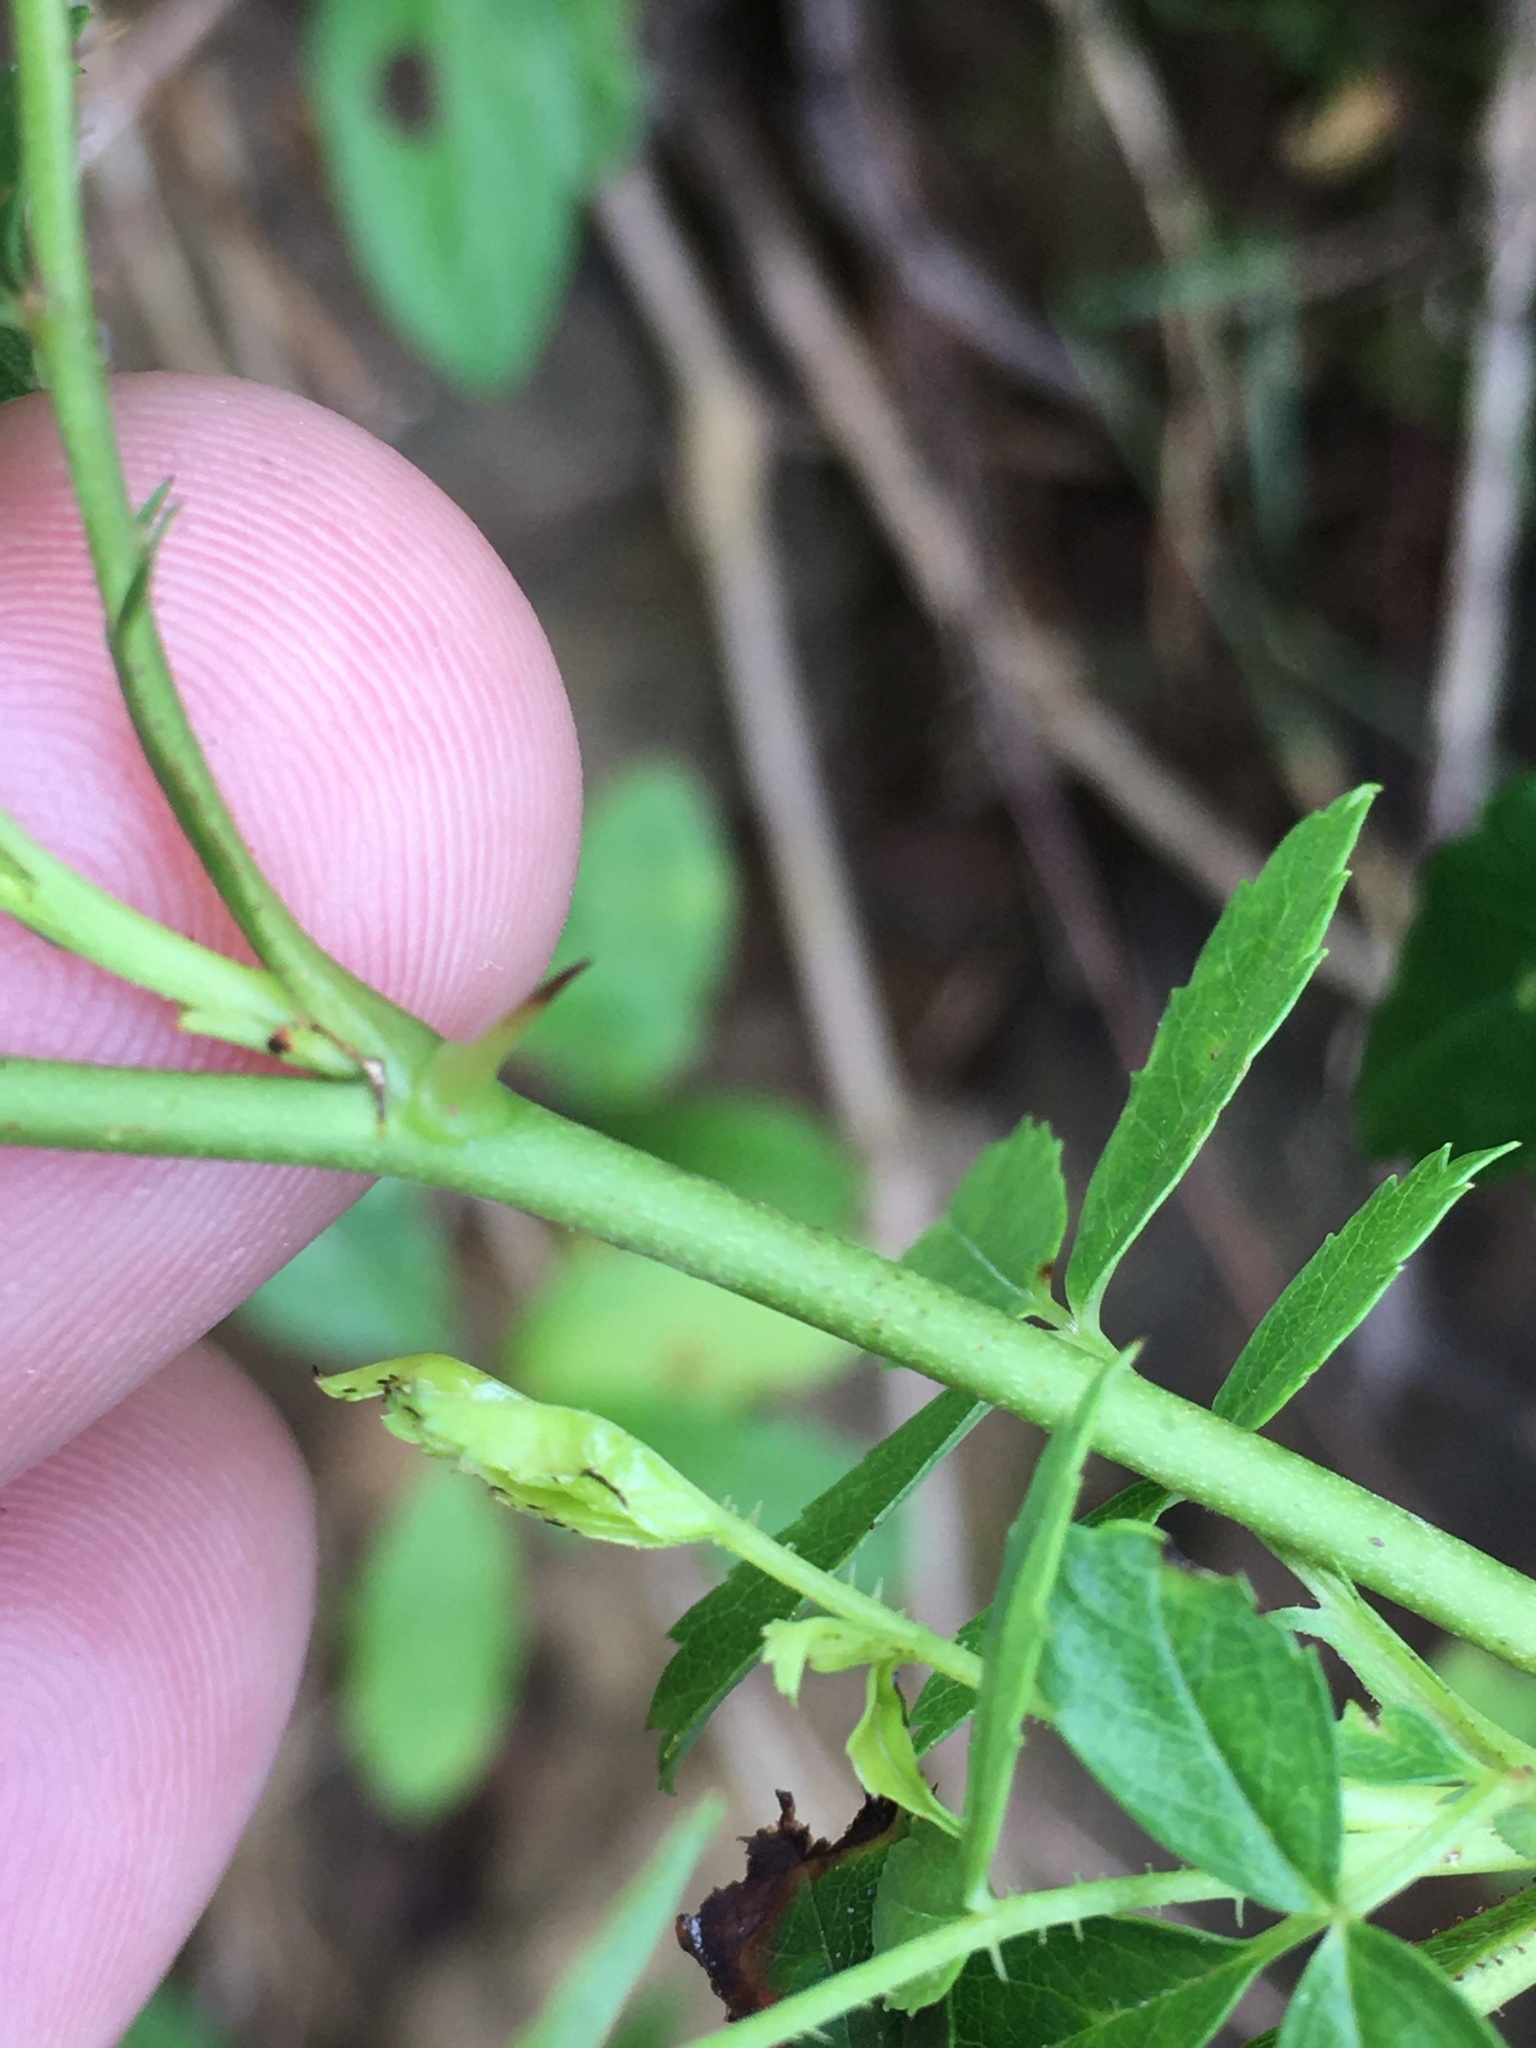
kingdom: Plantae
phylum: Tracheophyta
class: Magnoliopsida
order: Rosales
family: Rosaceae
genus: Rosa
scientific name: Rosa carolina
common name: Pasture rose
